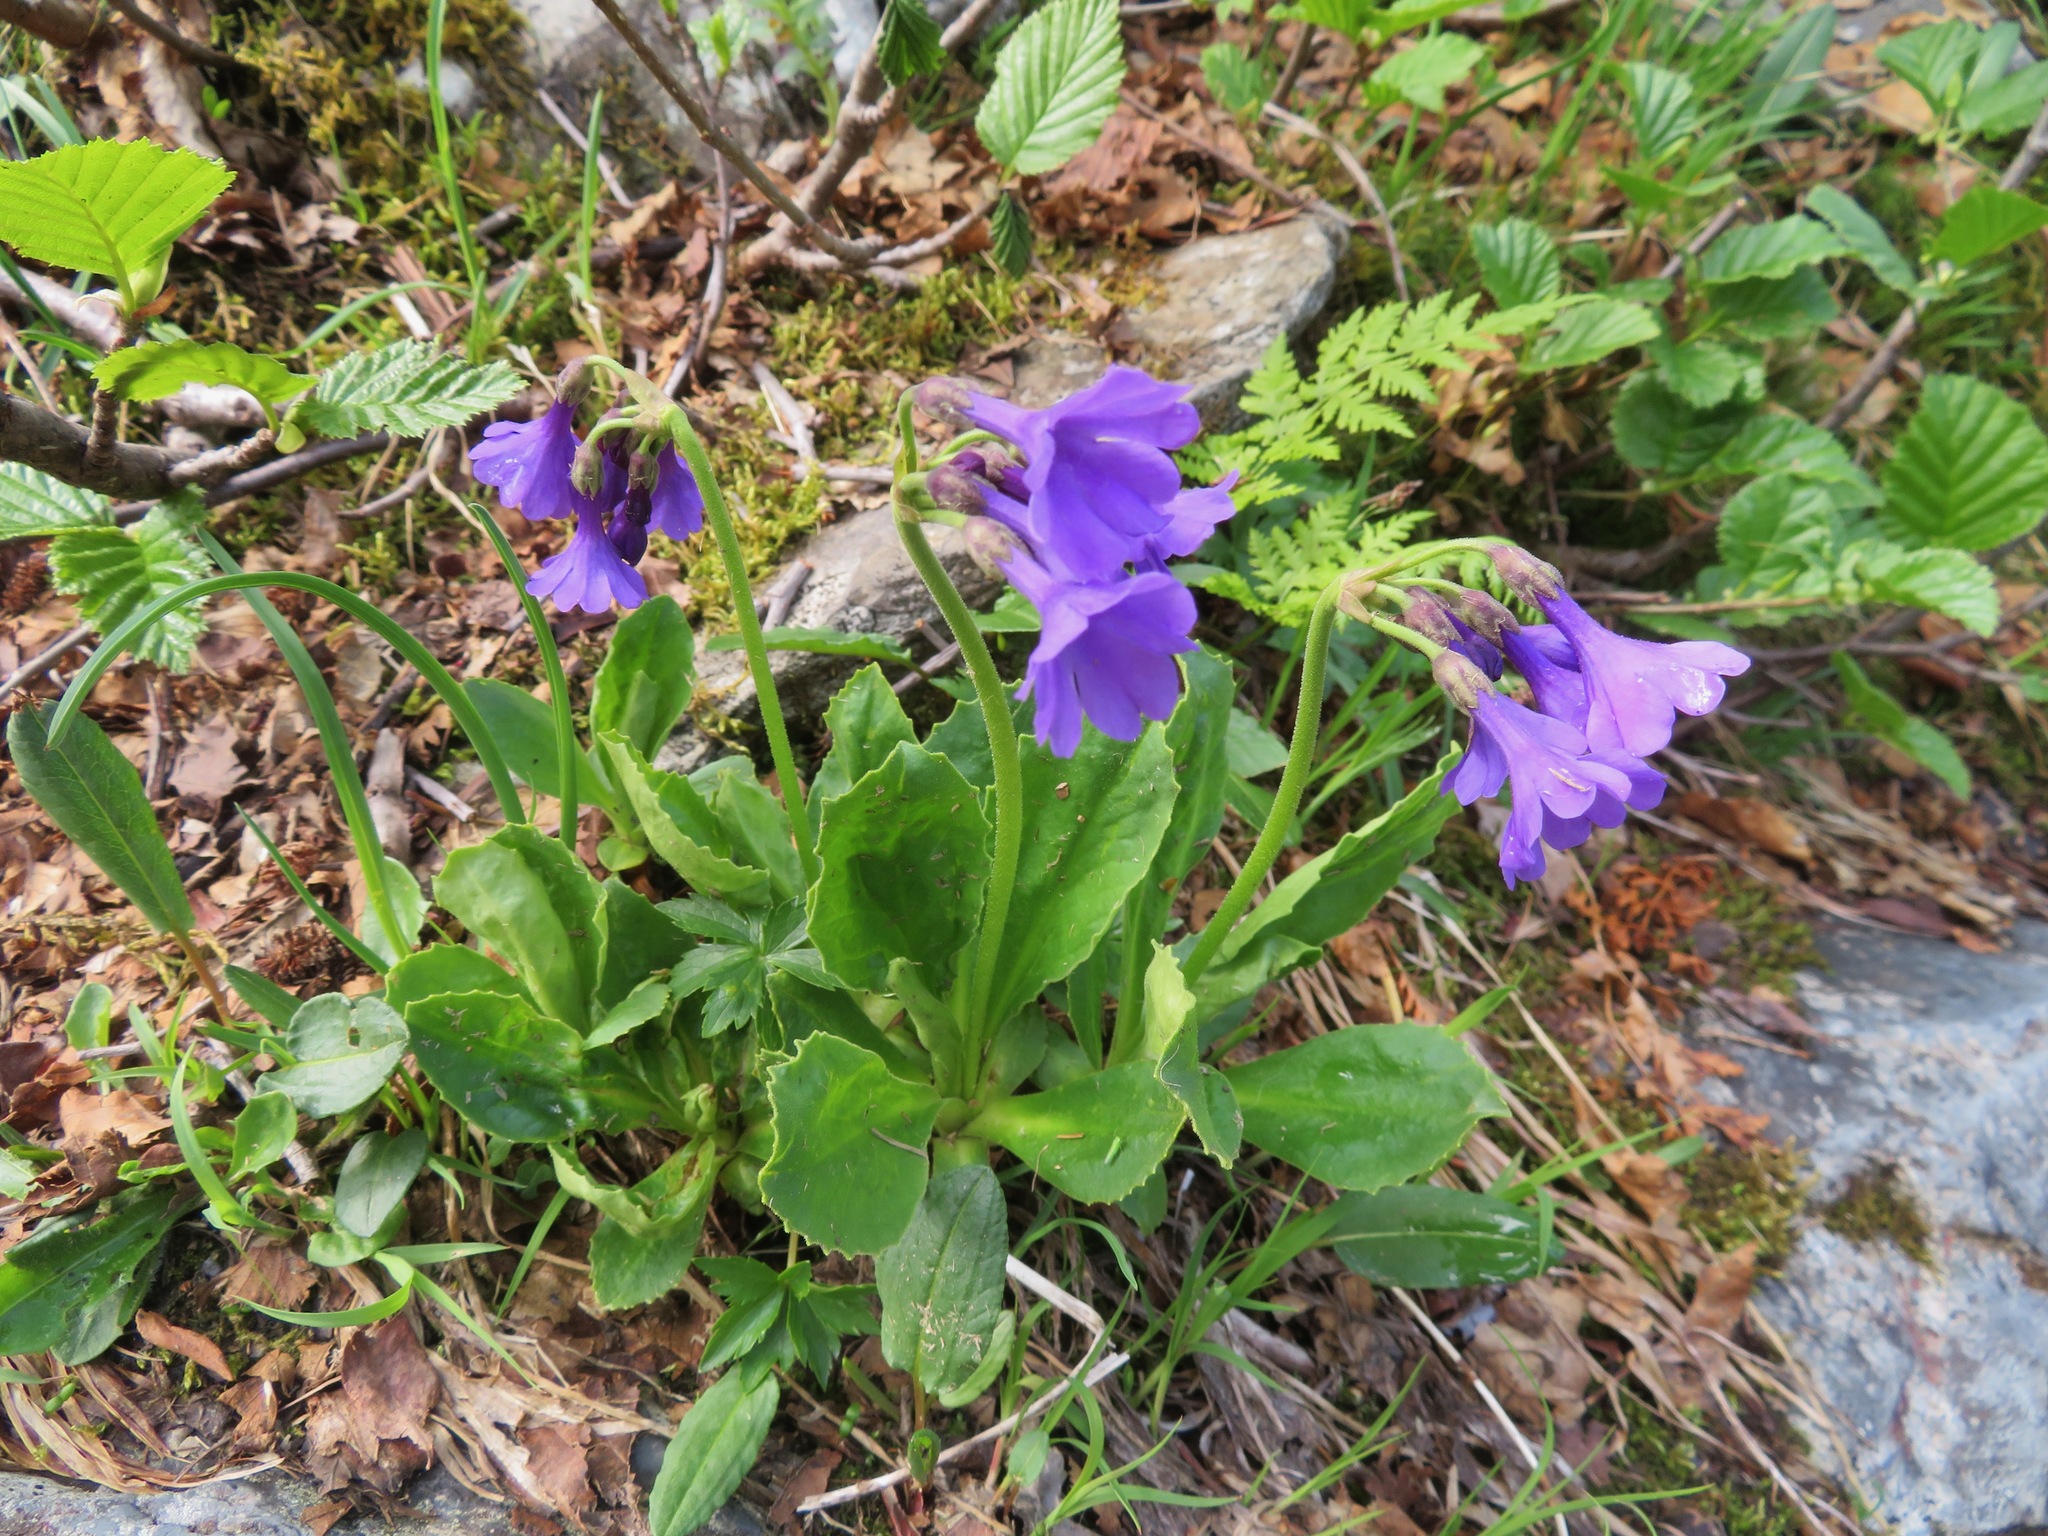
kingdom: Plantae
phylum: Tracheophyta
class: Magnoliopsida
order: Ericales
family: Primulaceae
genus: Primula
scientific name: Primula latifolia
